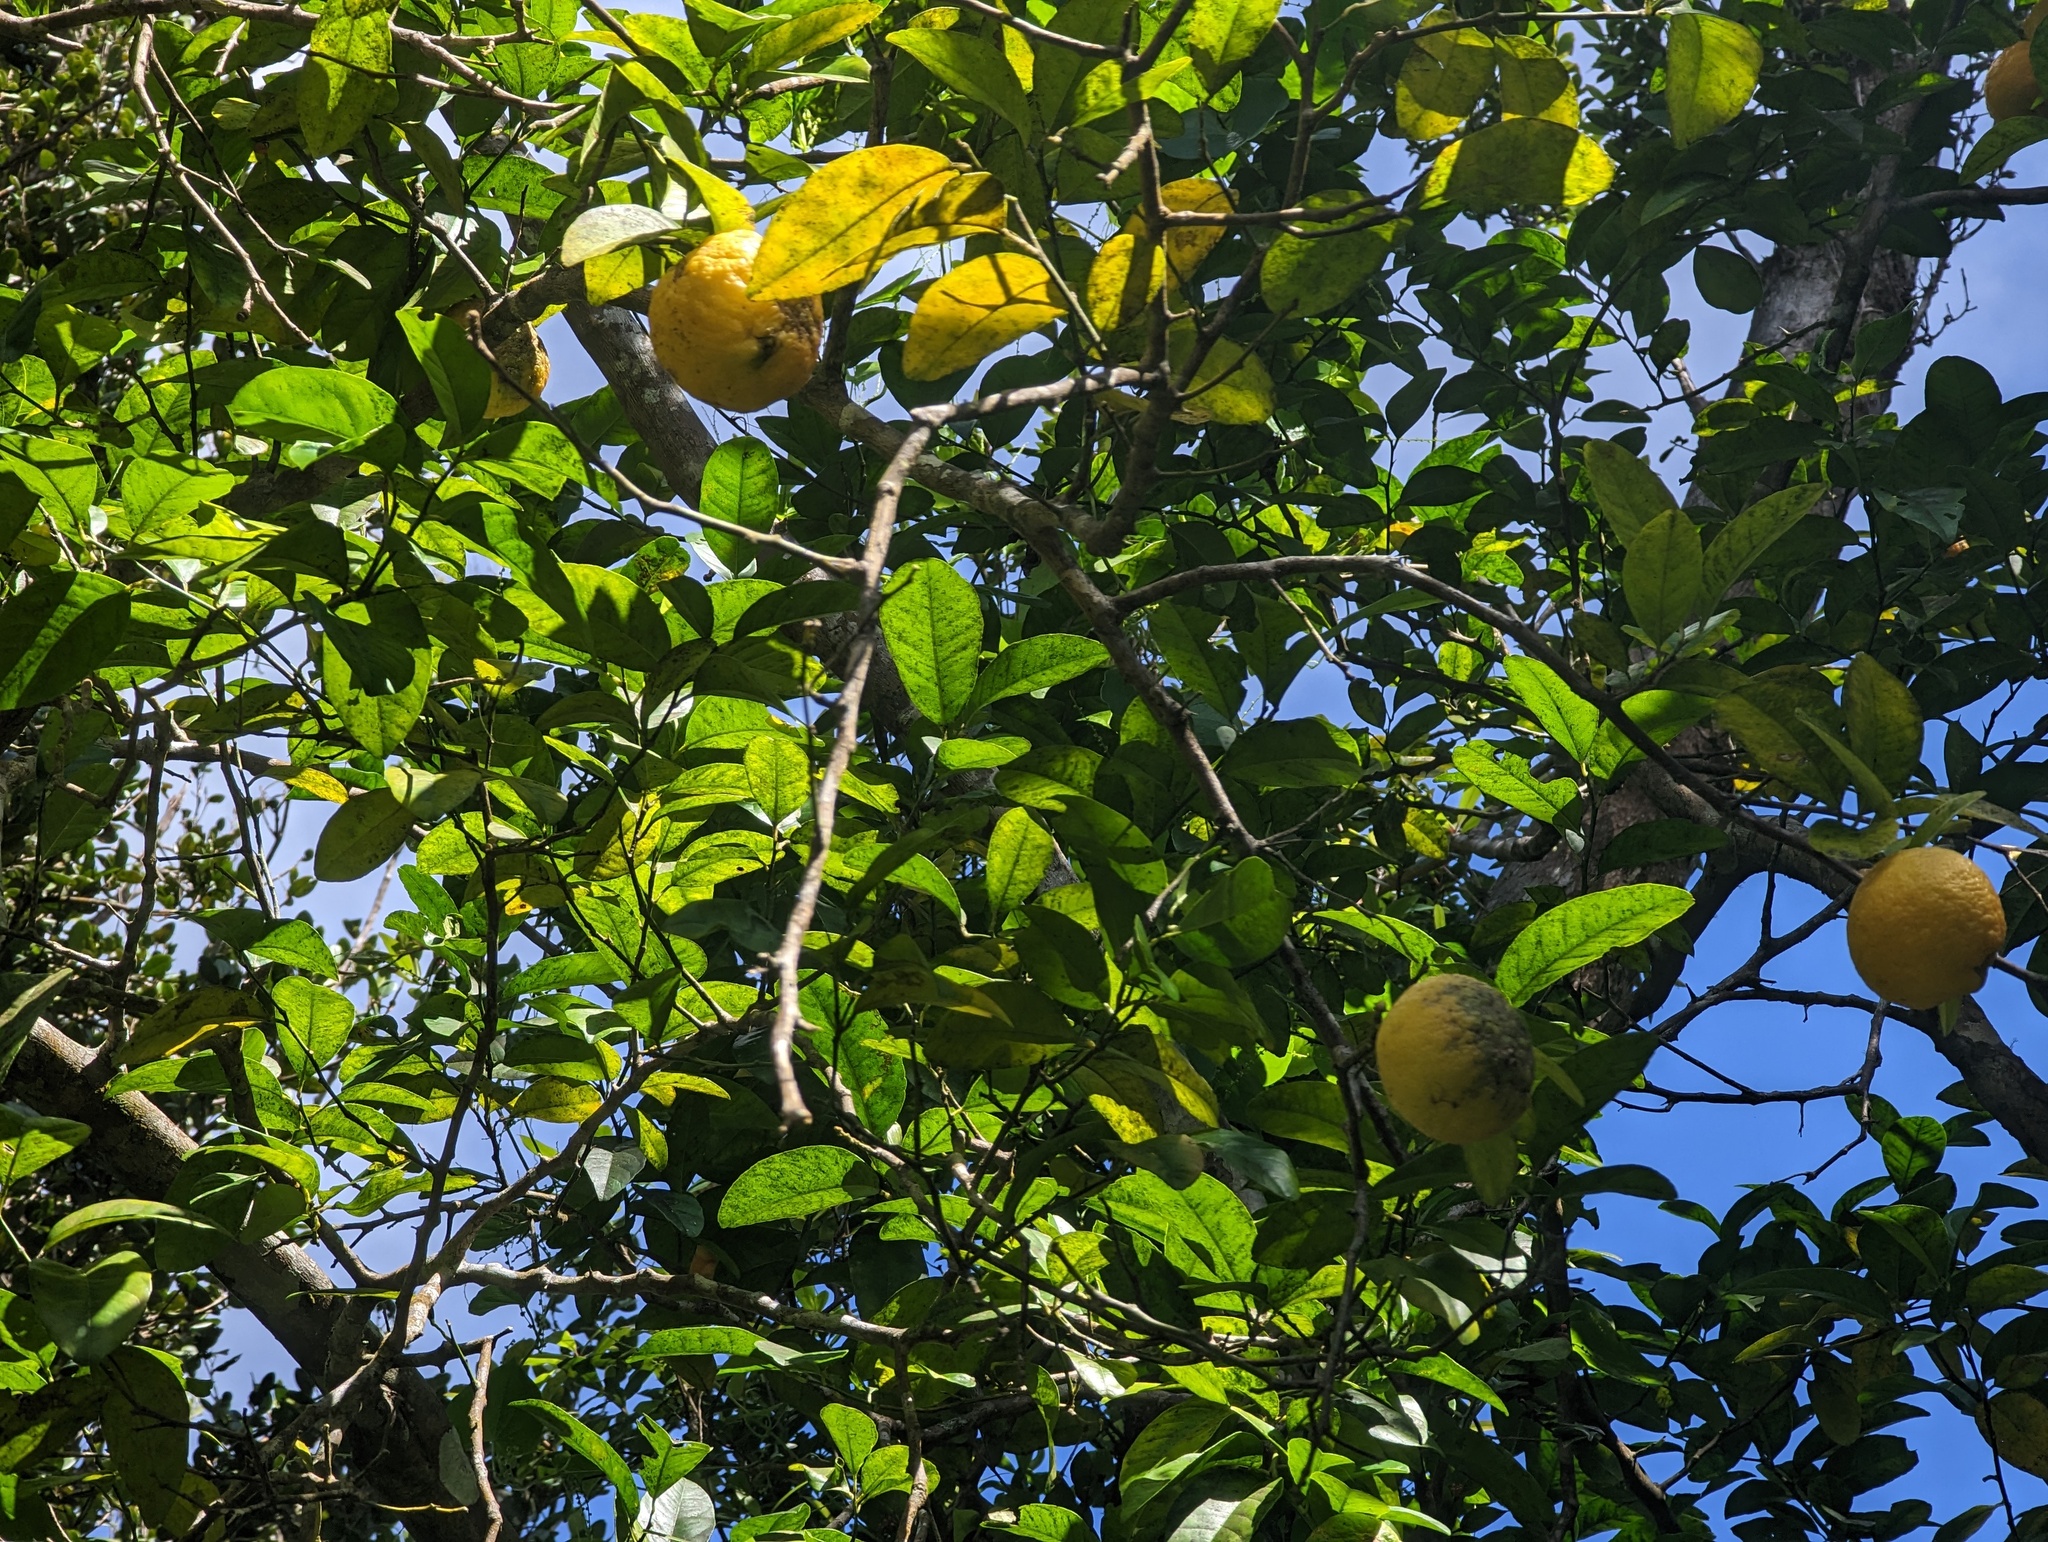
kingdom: Plantae
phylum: Tracheophyta
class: Magnoliopsida
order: Sapindales
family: Rutaceae
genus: Citrus
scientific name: Citrus taitensis
